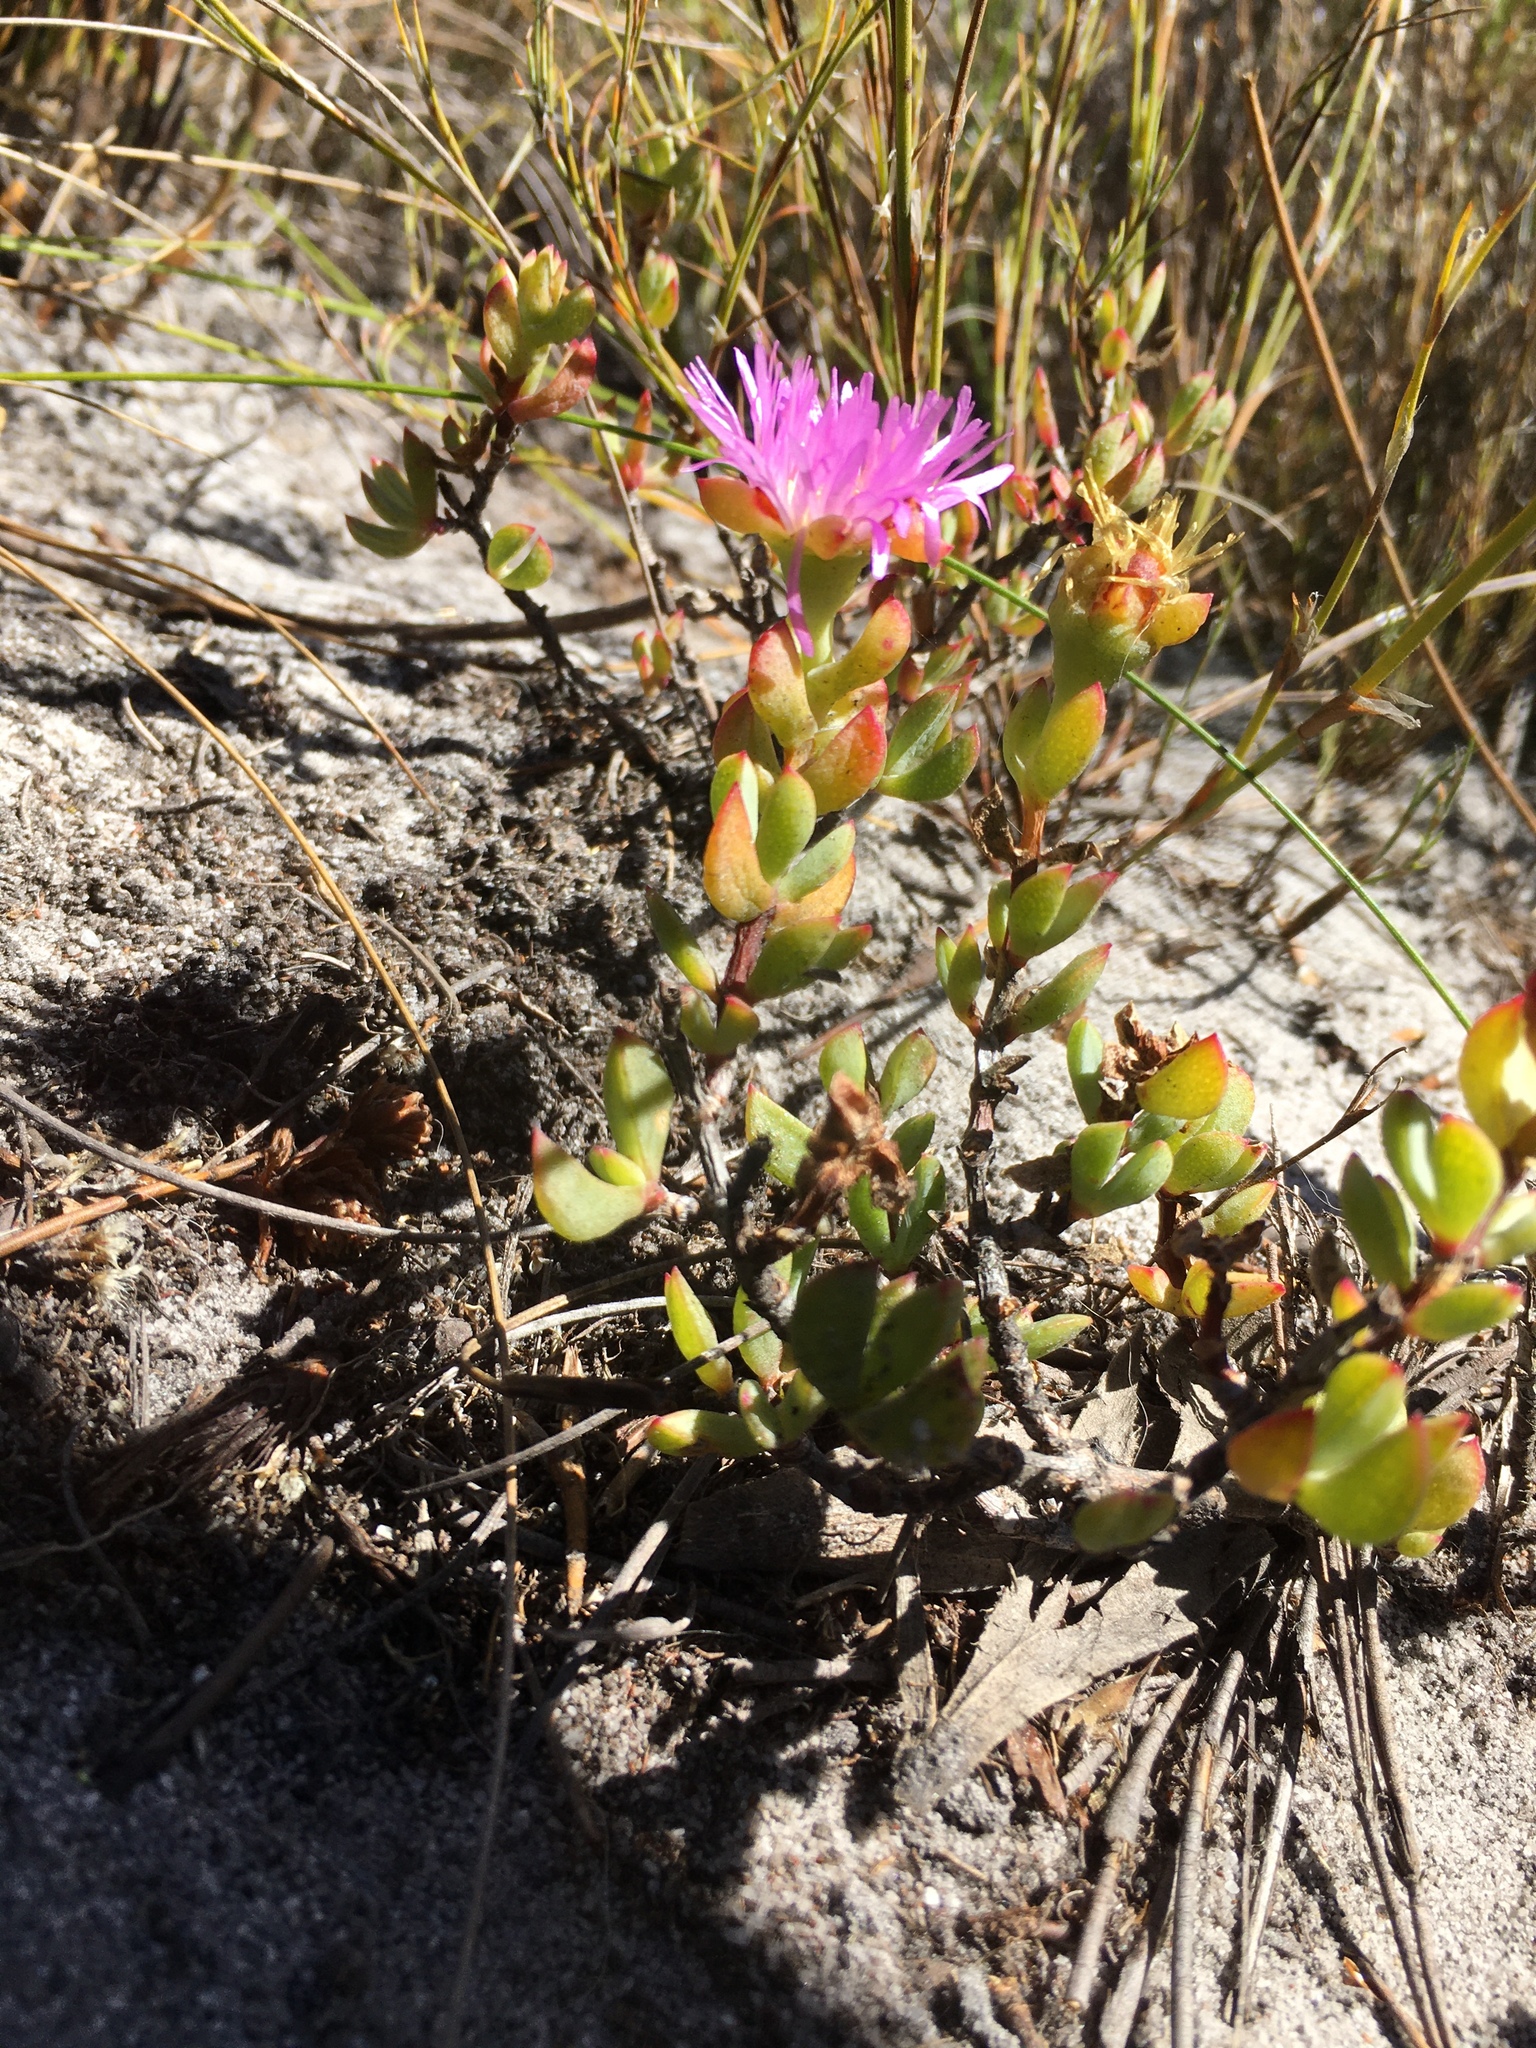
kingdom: Plantae
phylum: Tracheophyta
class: Magnoliopsida
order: Caryophyllales
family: Aizoaceae
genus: Oscularia
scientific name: Oscularia falciformis
